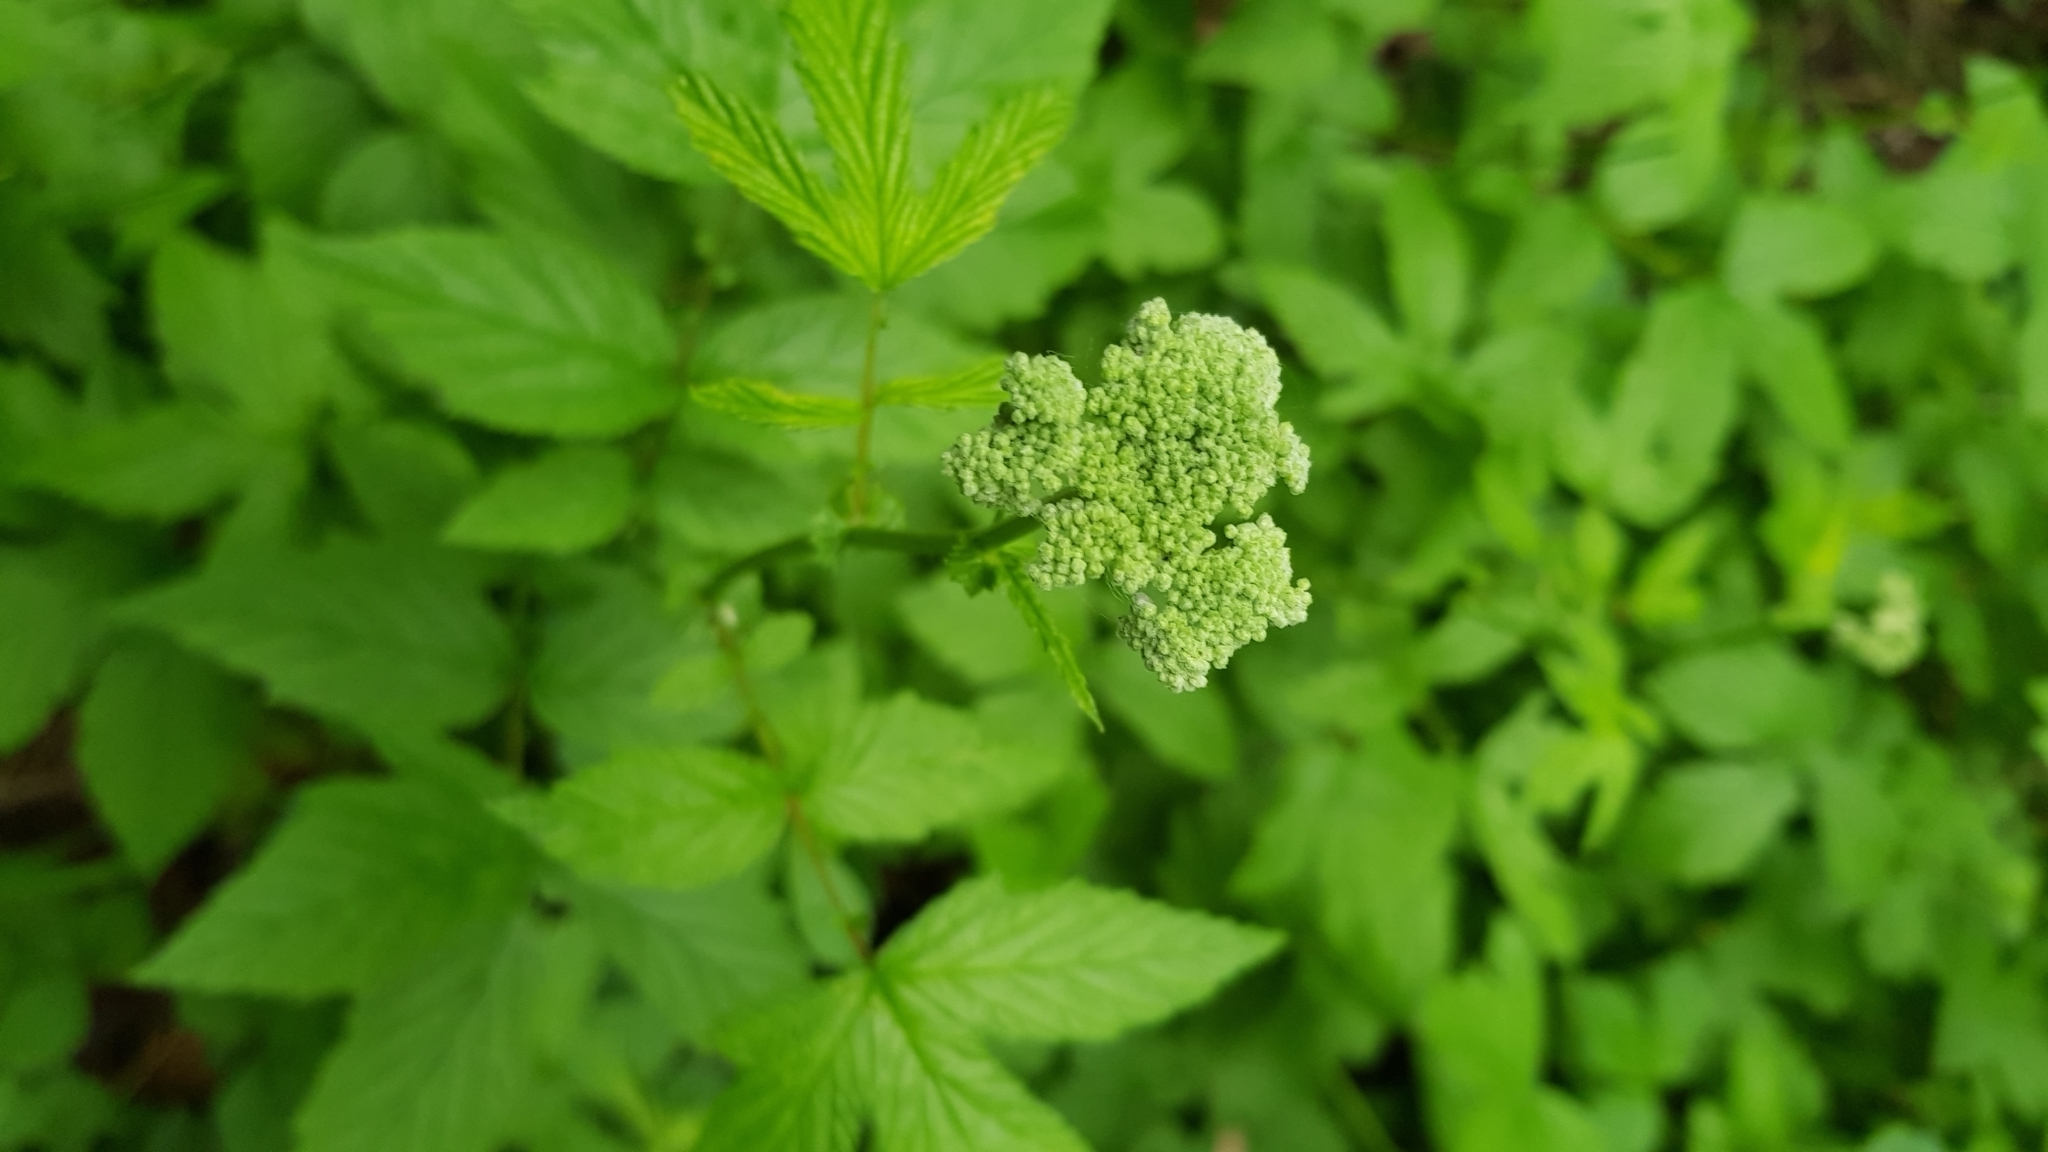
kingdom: Plantae
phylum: Tracheophyta
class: Magnoliopsida
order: Rosales
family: Rosaceae
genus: Filipendula
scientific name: Filipendula ulmaria
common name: Meadowsweet
